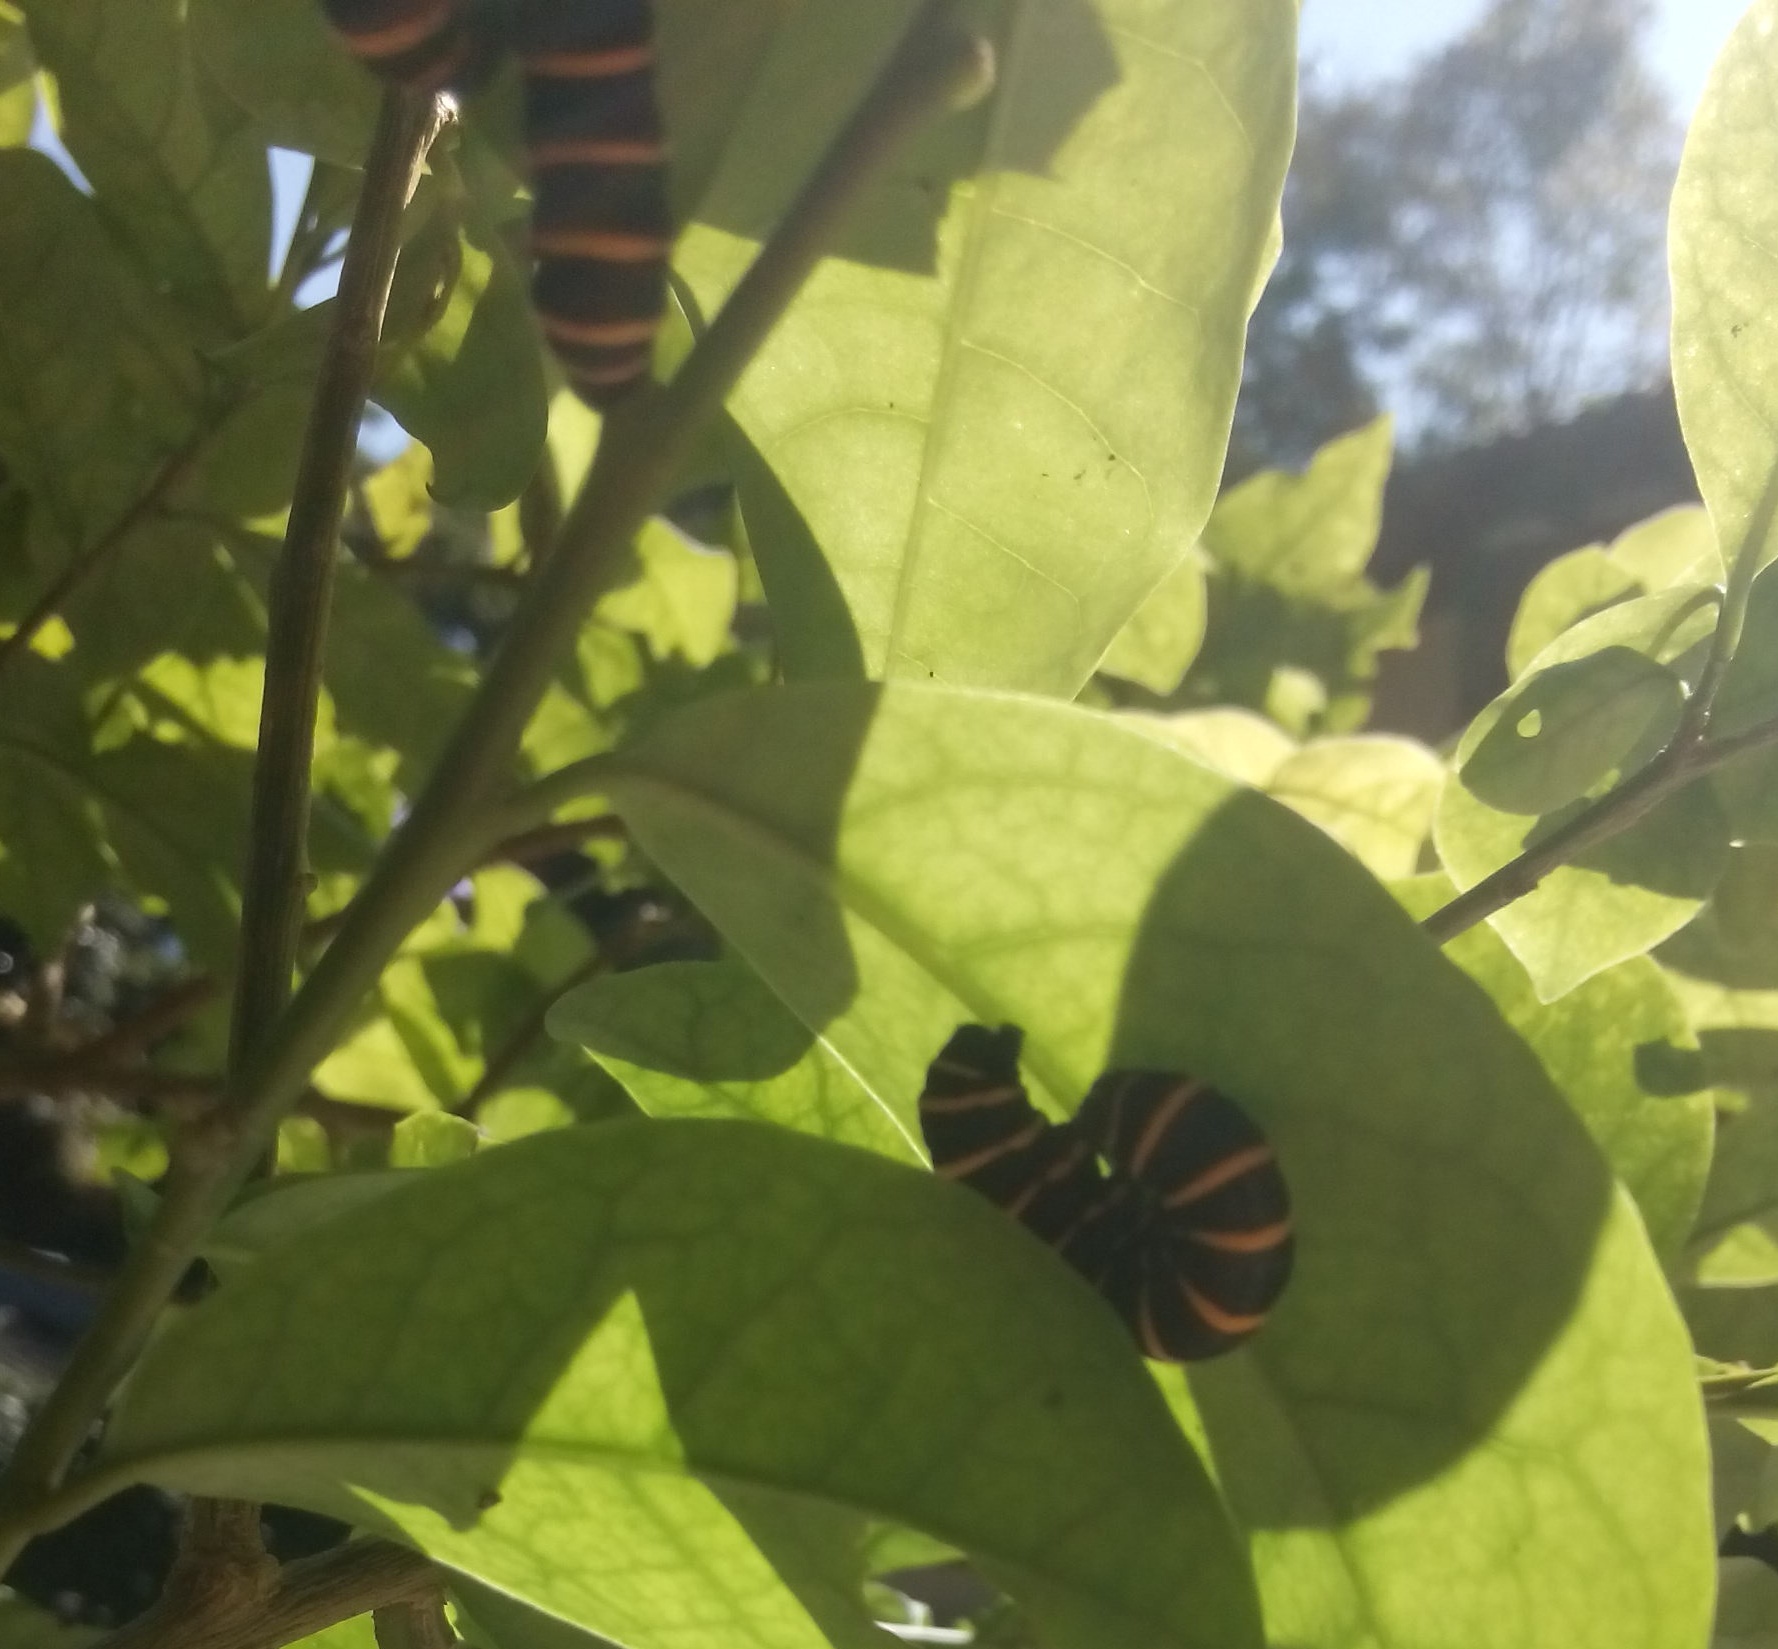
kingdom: Animalia
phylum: Arthropoda
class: Insecta
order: Lepidoptera
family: Nymphalidae
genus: Methona
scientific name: Methona themisto
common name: Themisto amberwing
